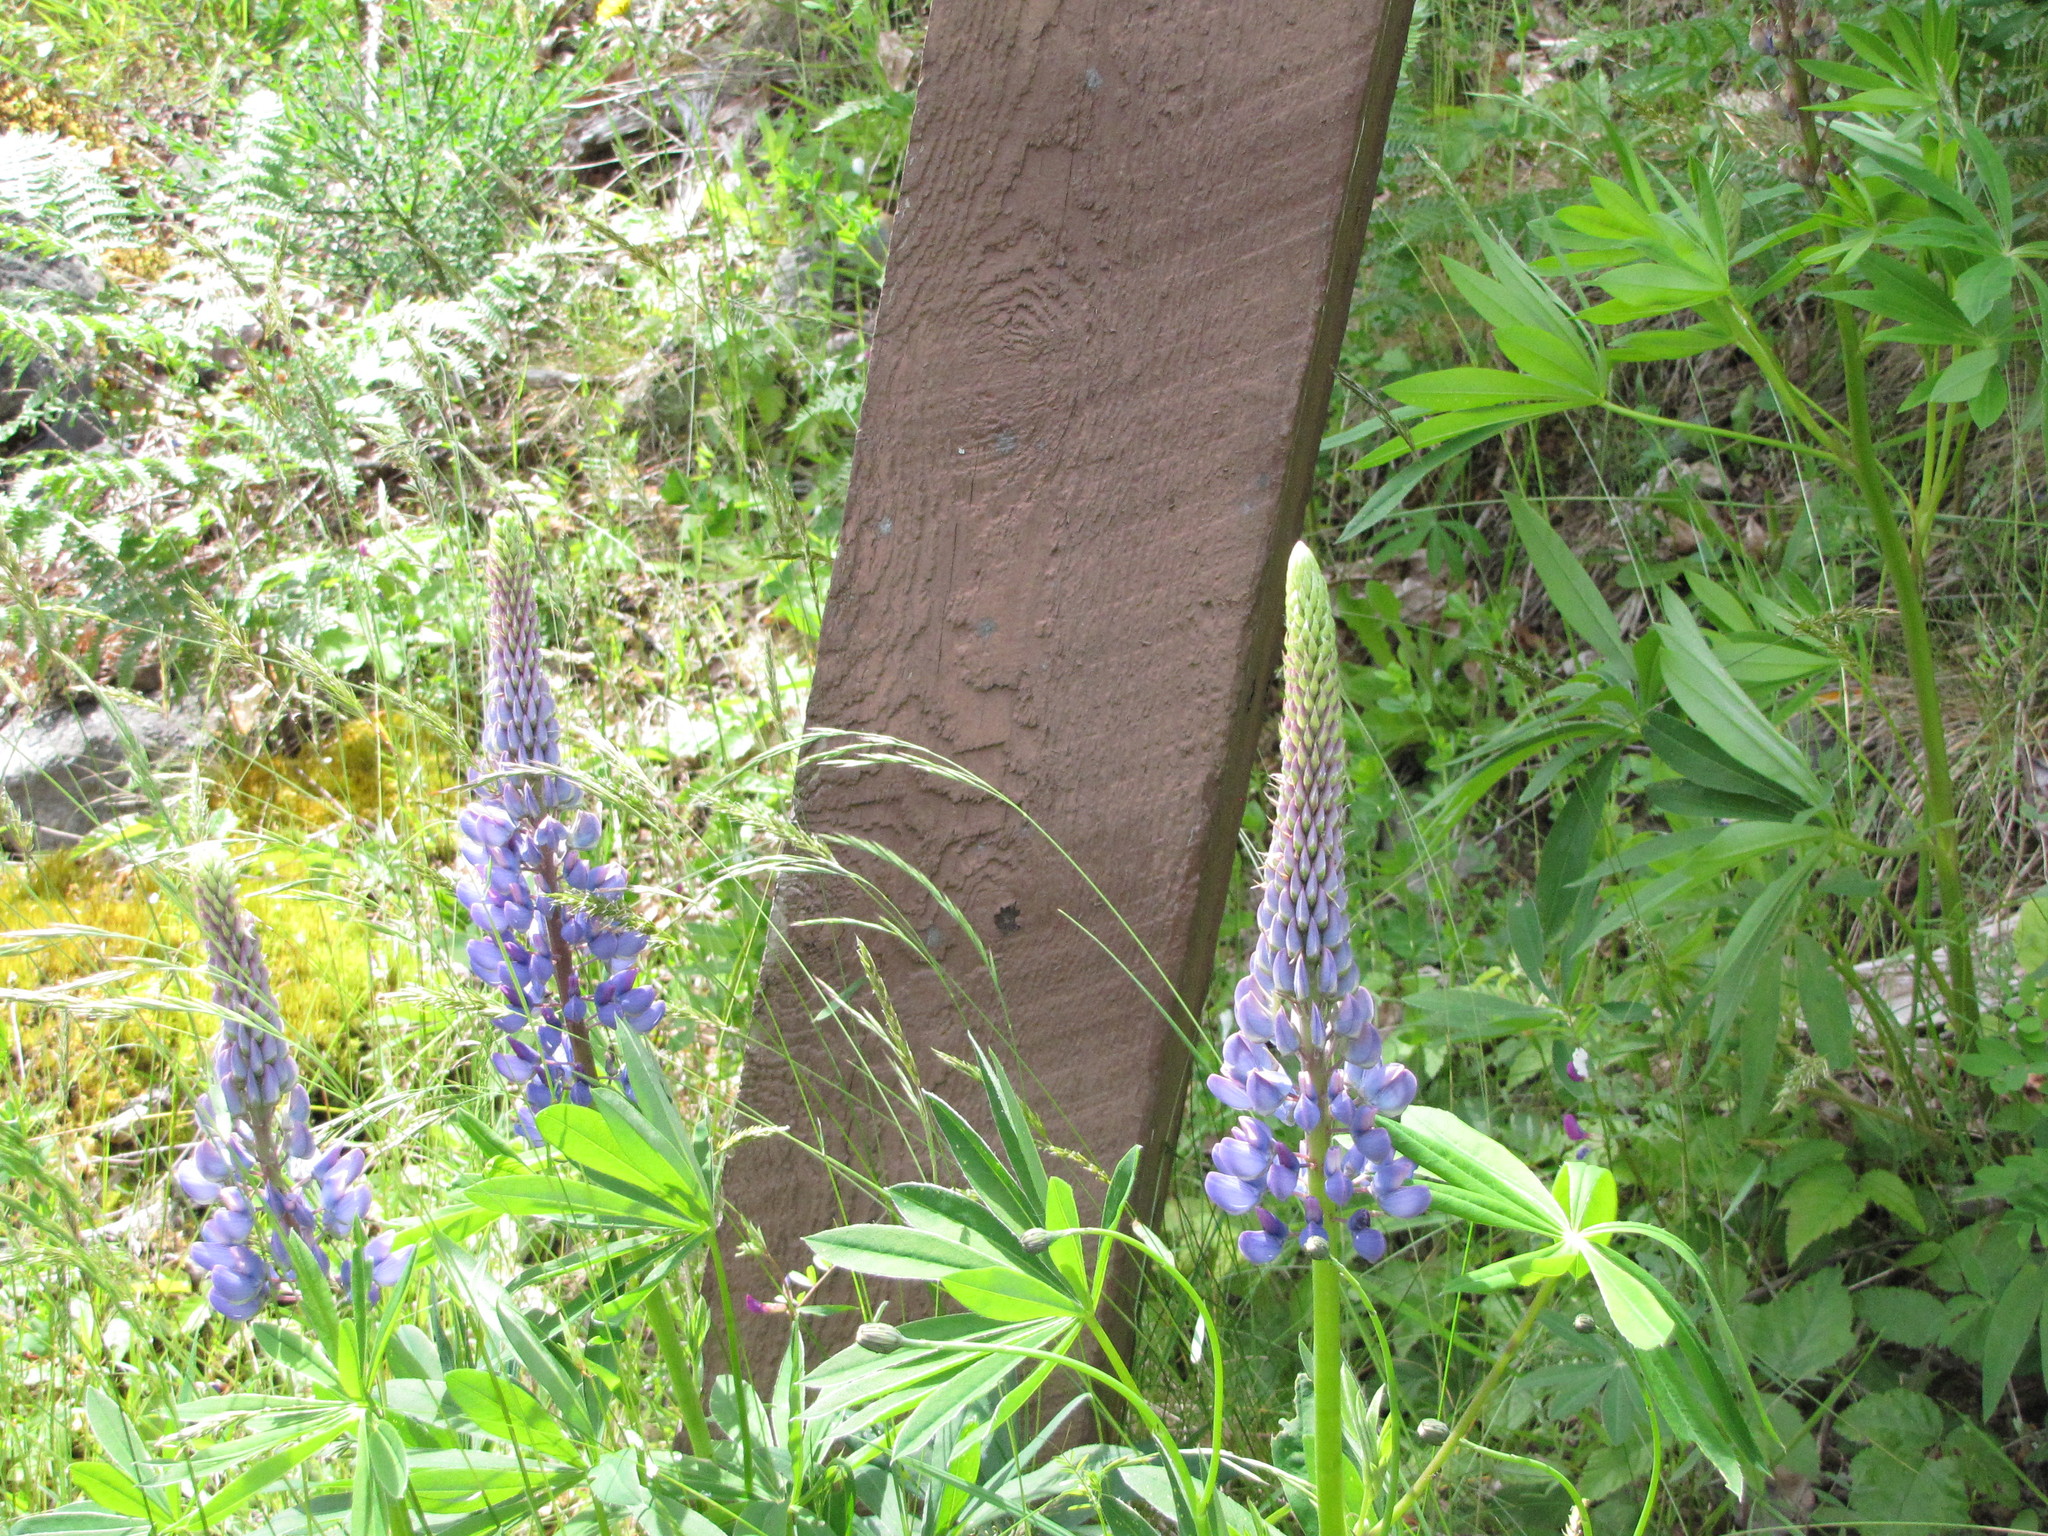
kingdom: Plantae
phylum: Tracheophyta
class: Magnoliopsida
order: Fabales
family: Fabaceae
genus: Lupinus
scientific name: Lupinus polyphyllus
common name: Garden lupin
